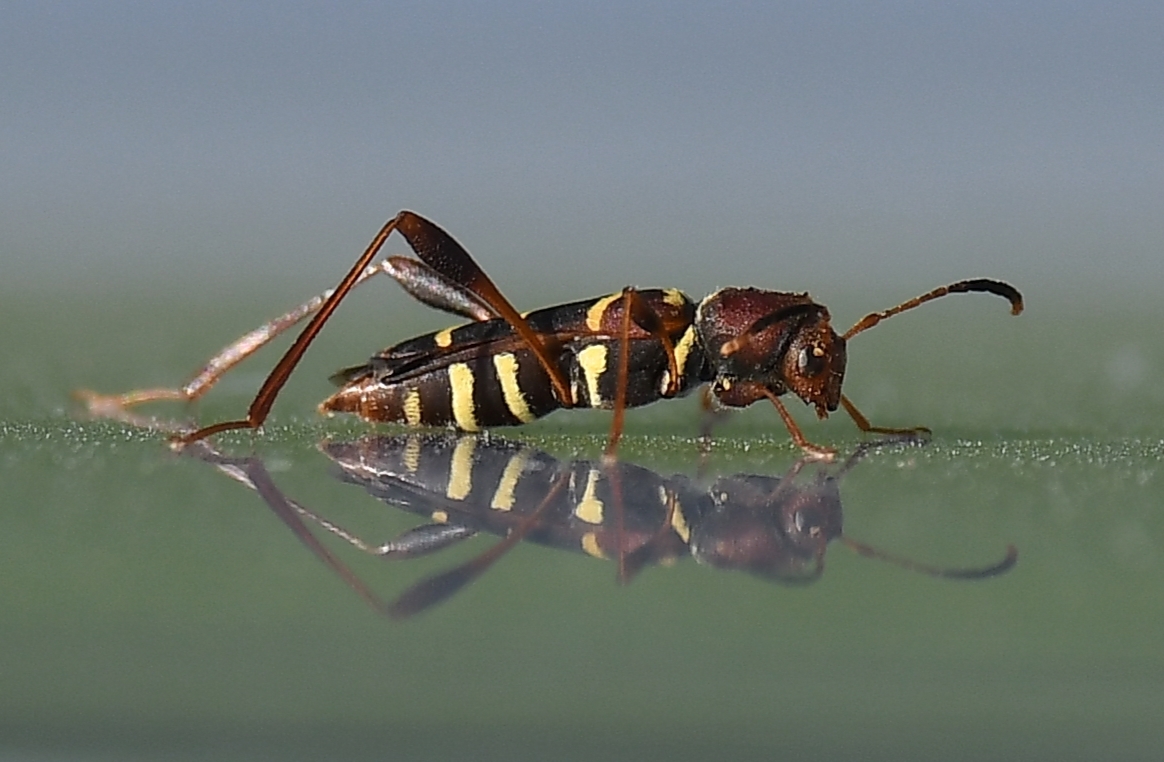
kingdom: Animalia
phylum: Arthropoda
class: Insecta
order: Coleoptera
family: Cerambycidae
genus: Neoclytus
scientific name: Neoclytus acuminatus
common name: Read-headed ash borer
